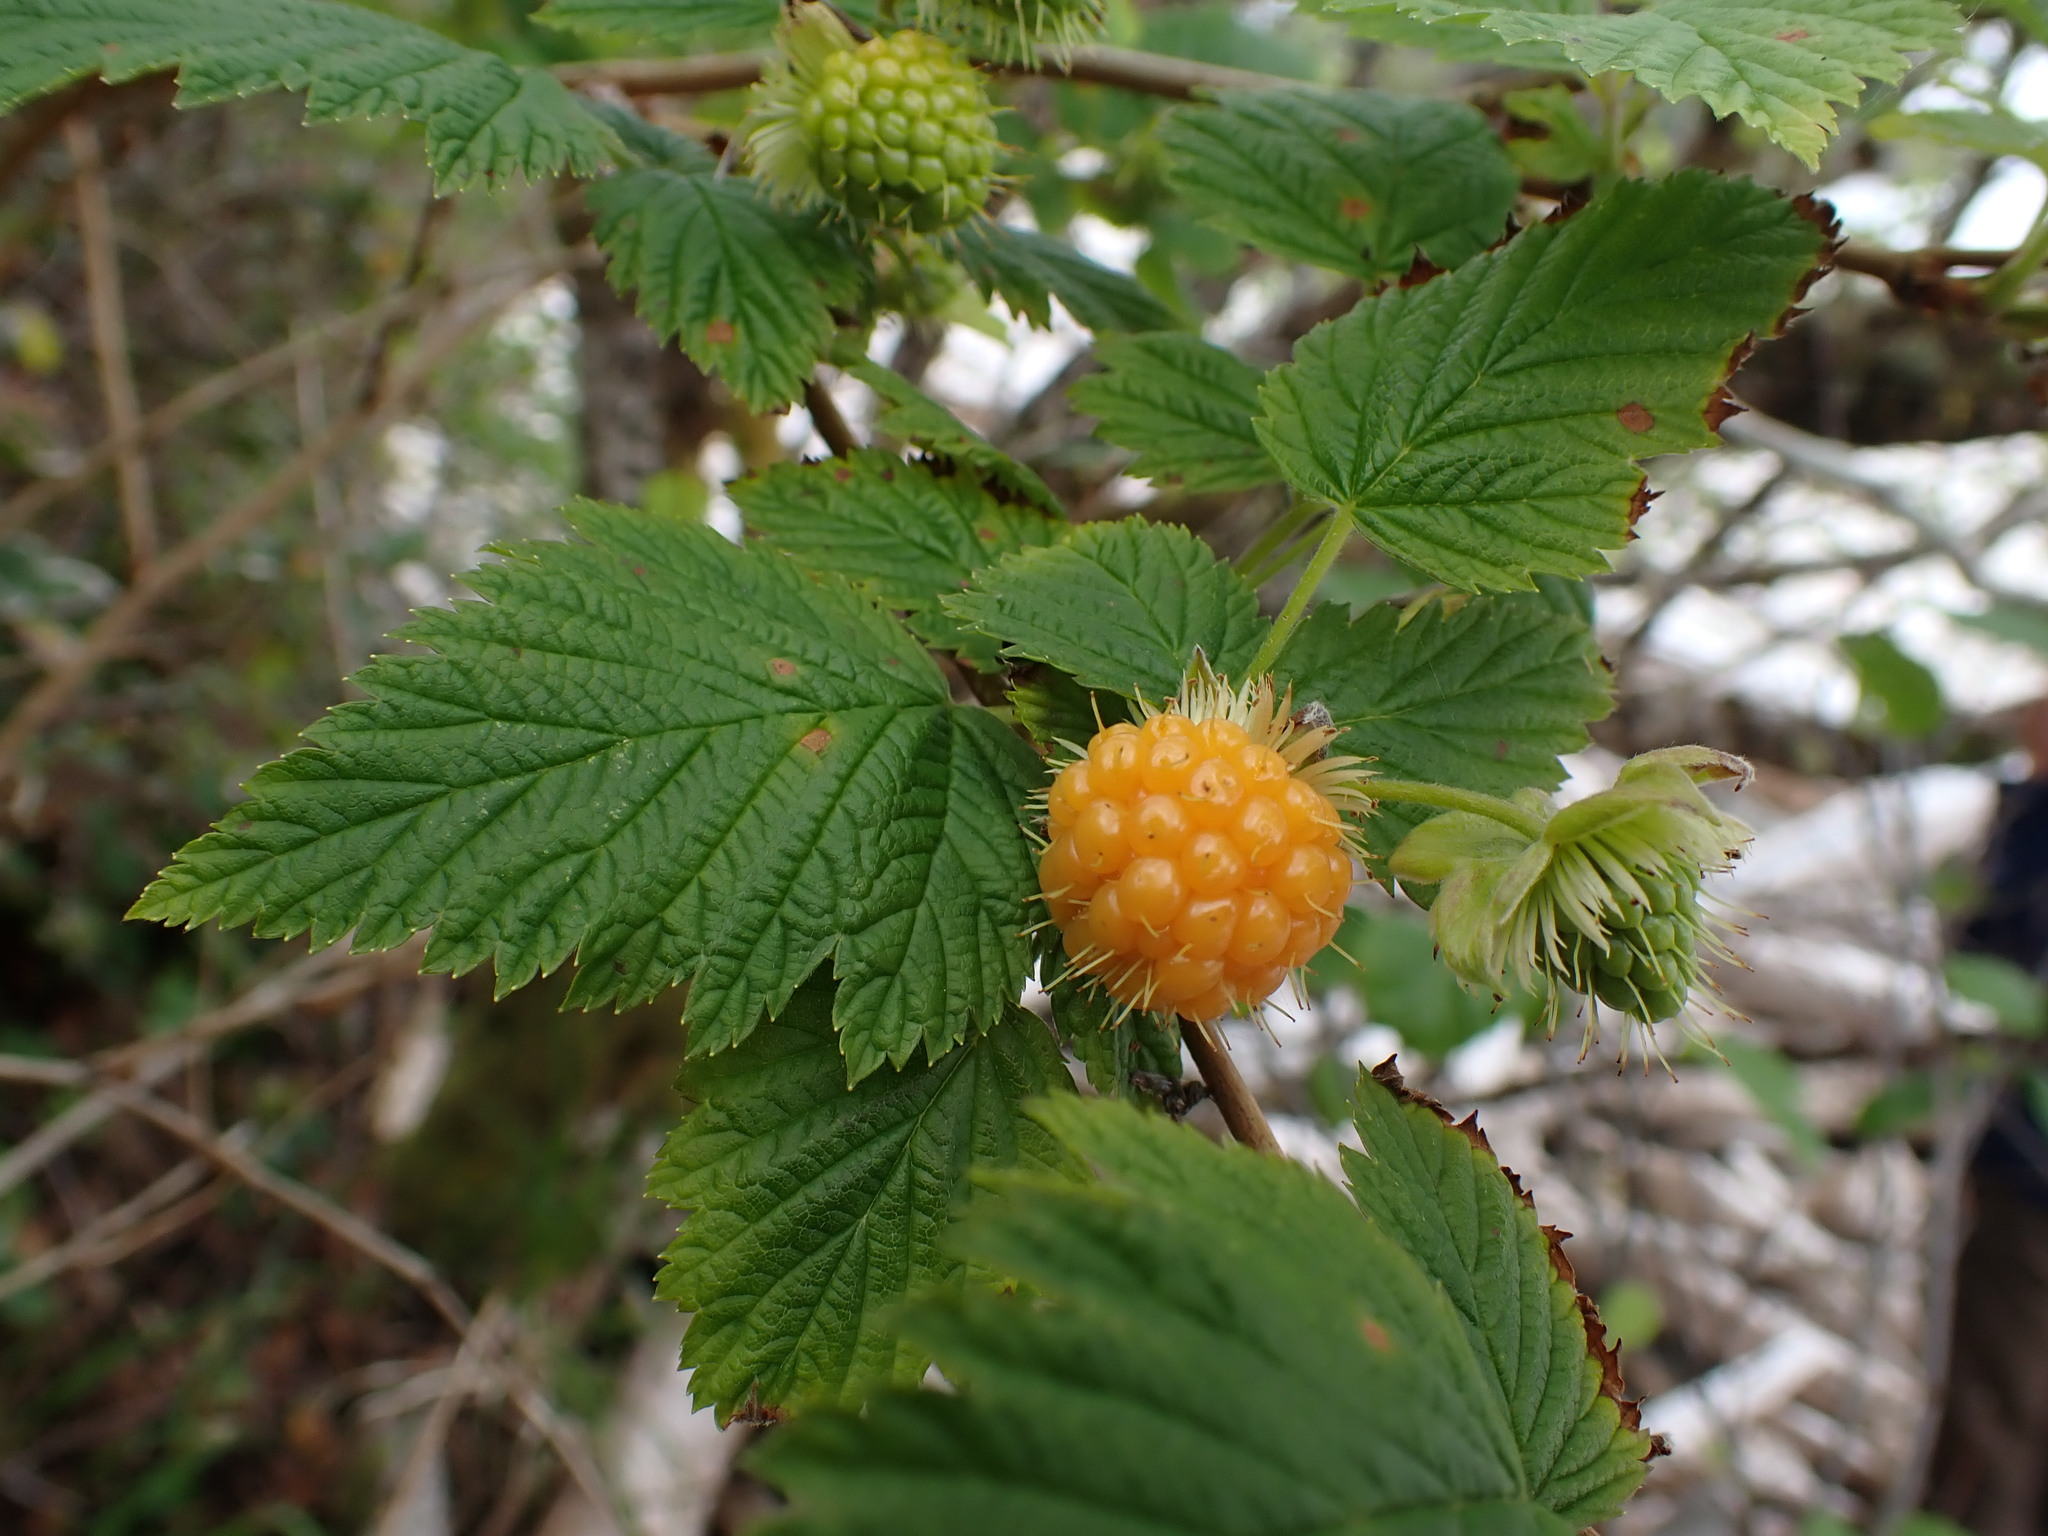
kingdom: Plantae
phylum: Tracheophyta
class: Magnoliopsida
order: Rosales
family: Rosaceae
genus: Rubus
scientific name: Rubus spectabilis
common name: Salmonberry
